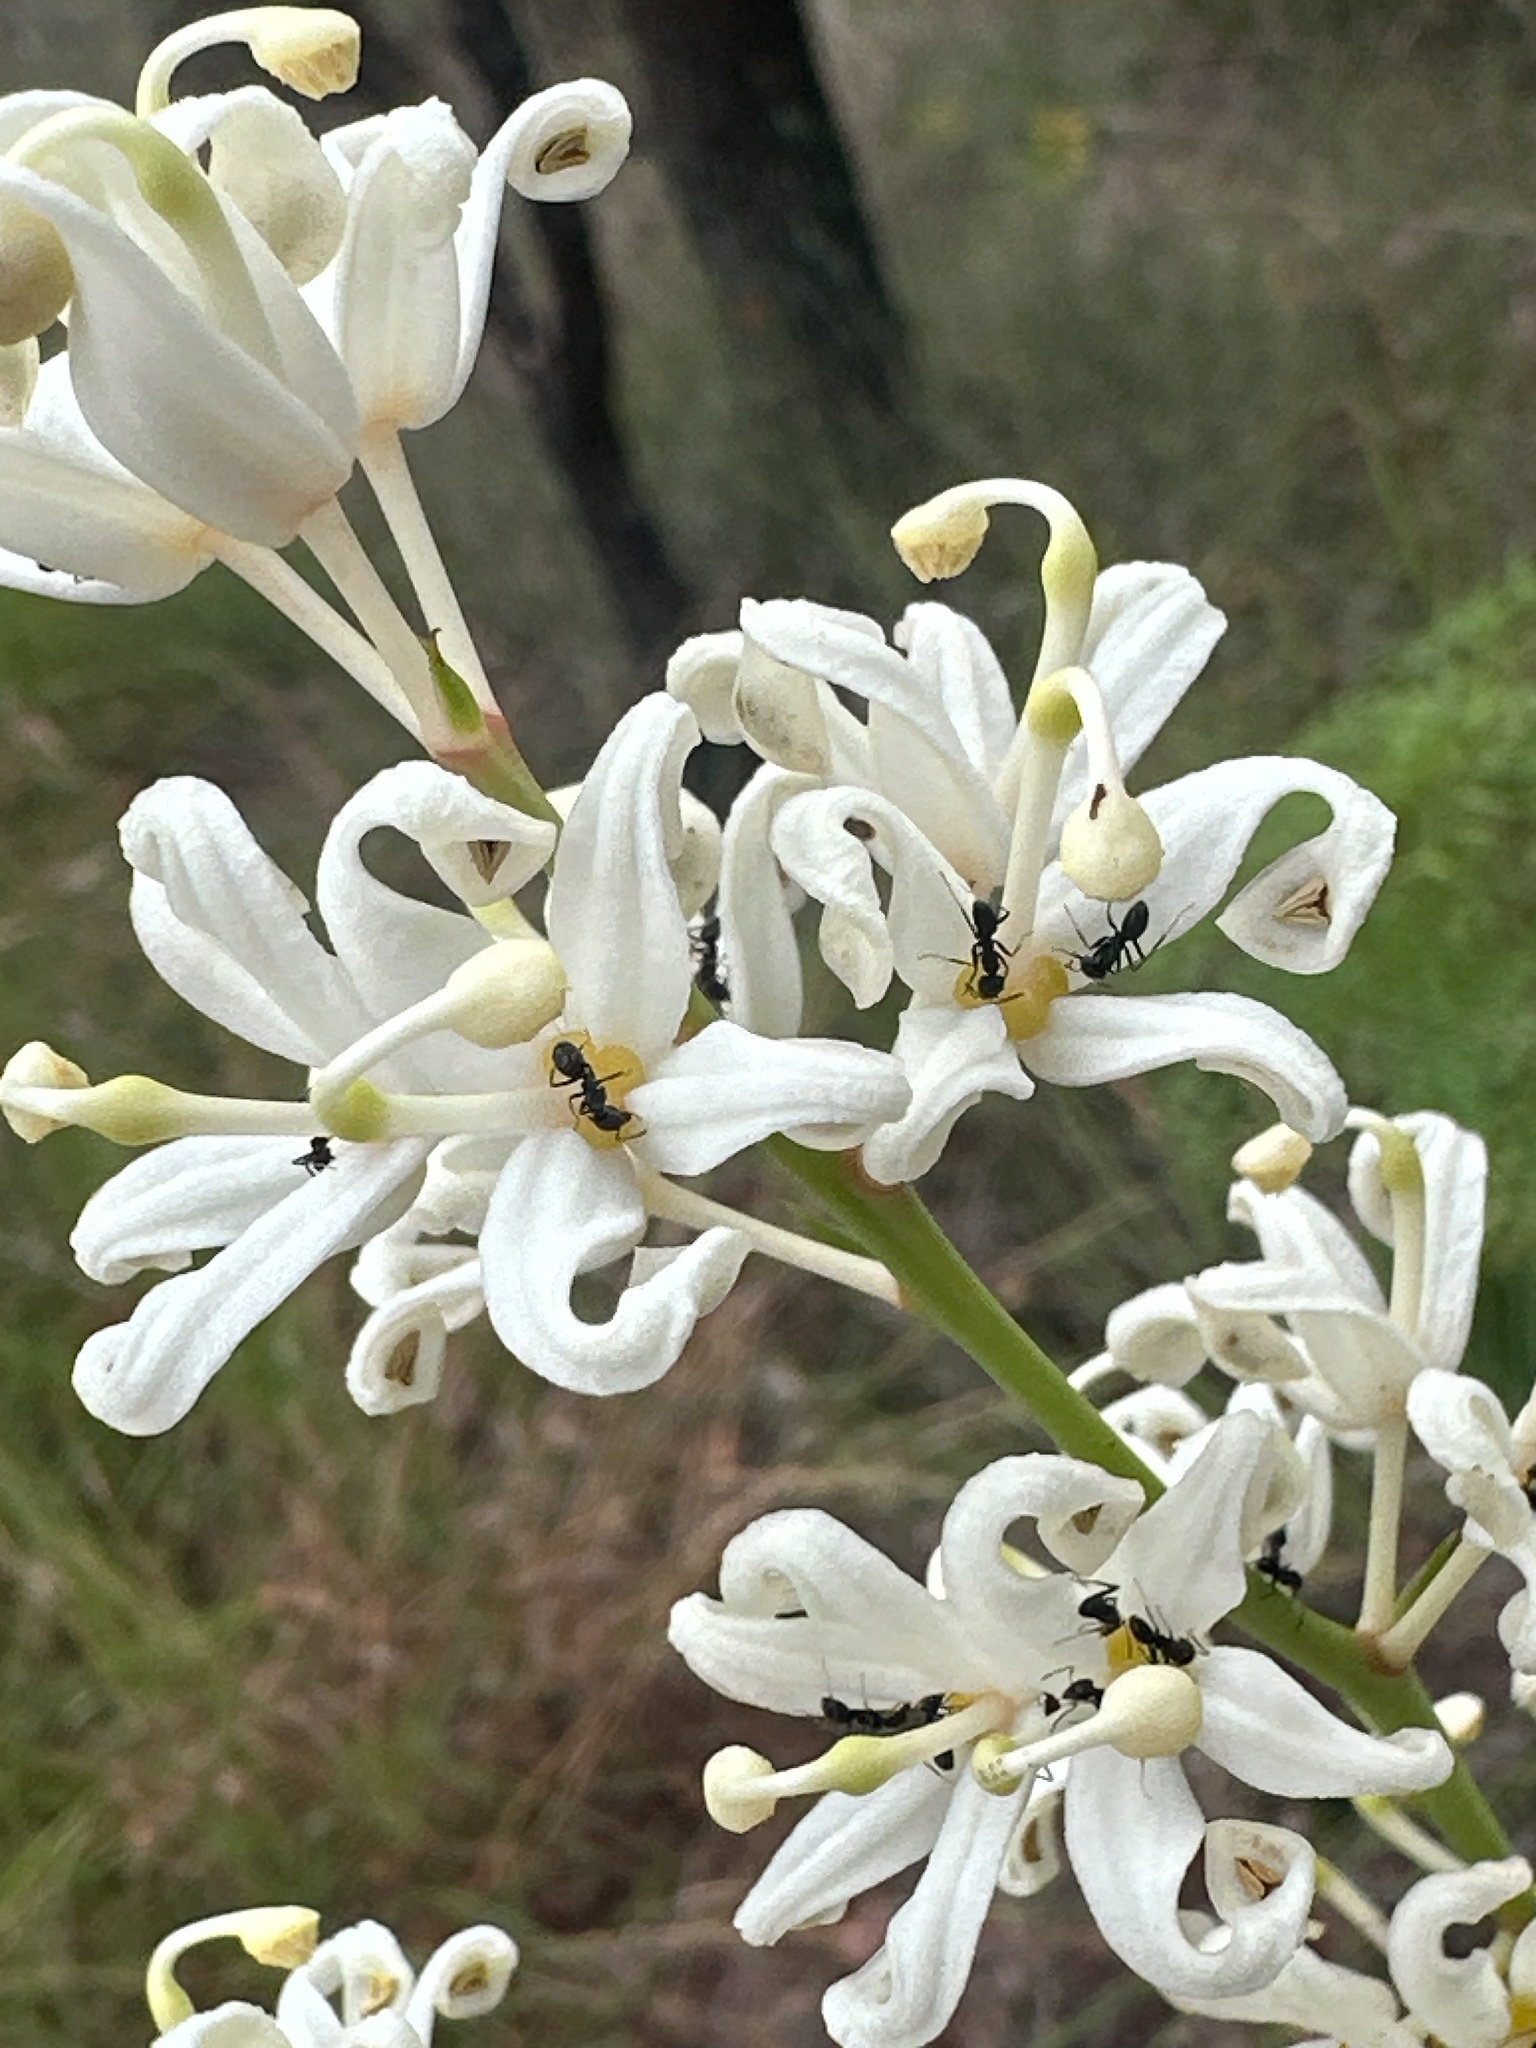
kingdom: Plantae
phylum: Tracheophyta
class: Magnoliopsida
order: Proteales
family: Proteaceae
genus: Lomatia
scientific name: Lomatia silaifolia
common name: Crinklebush
